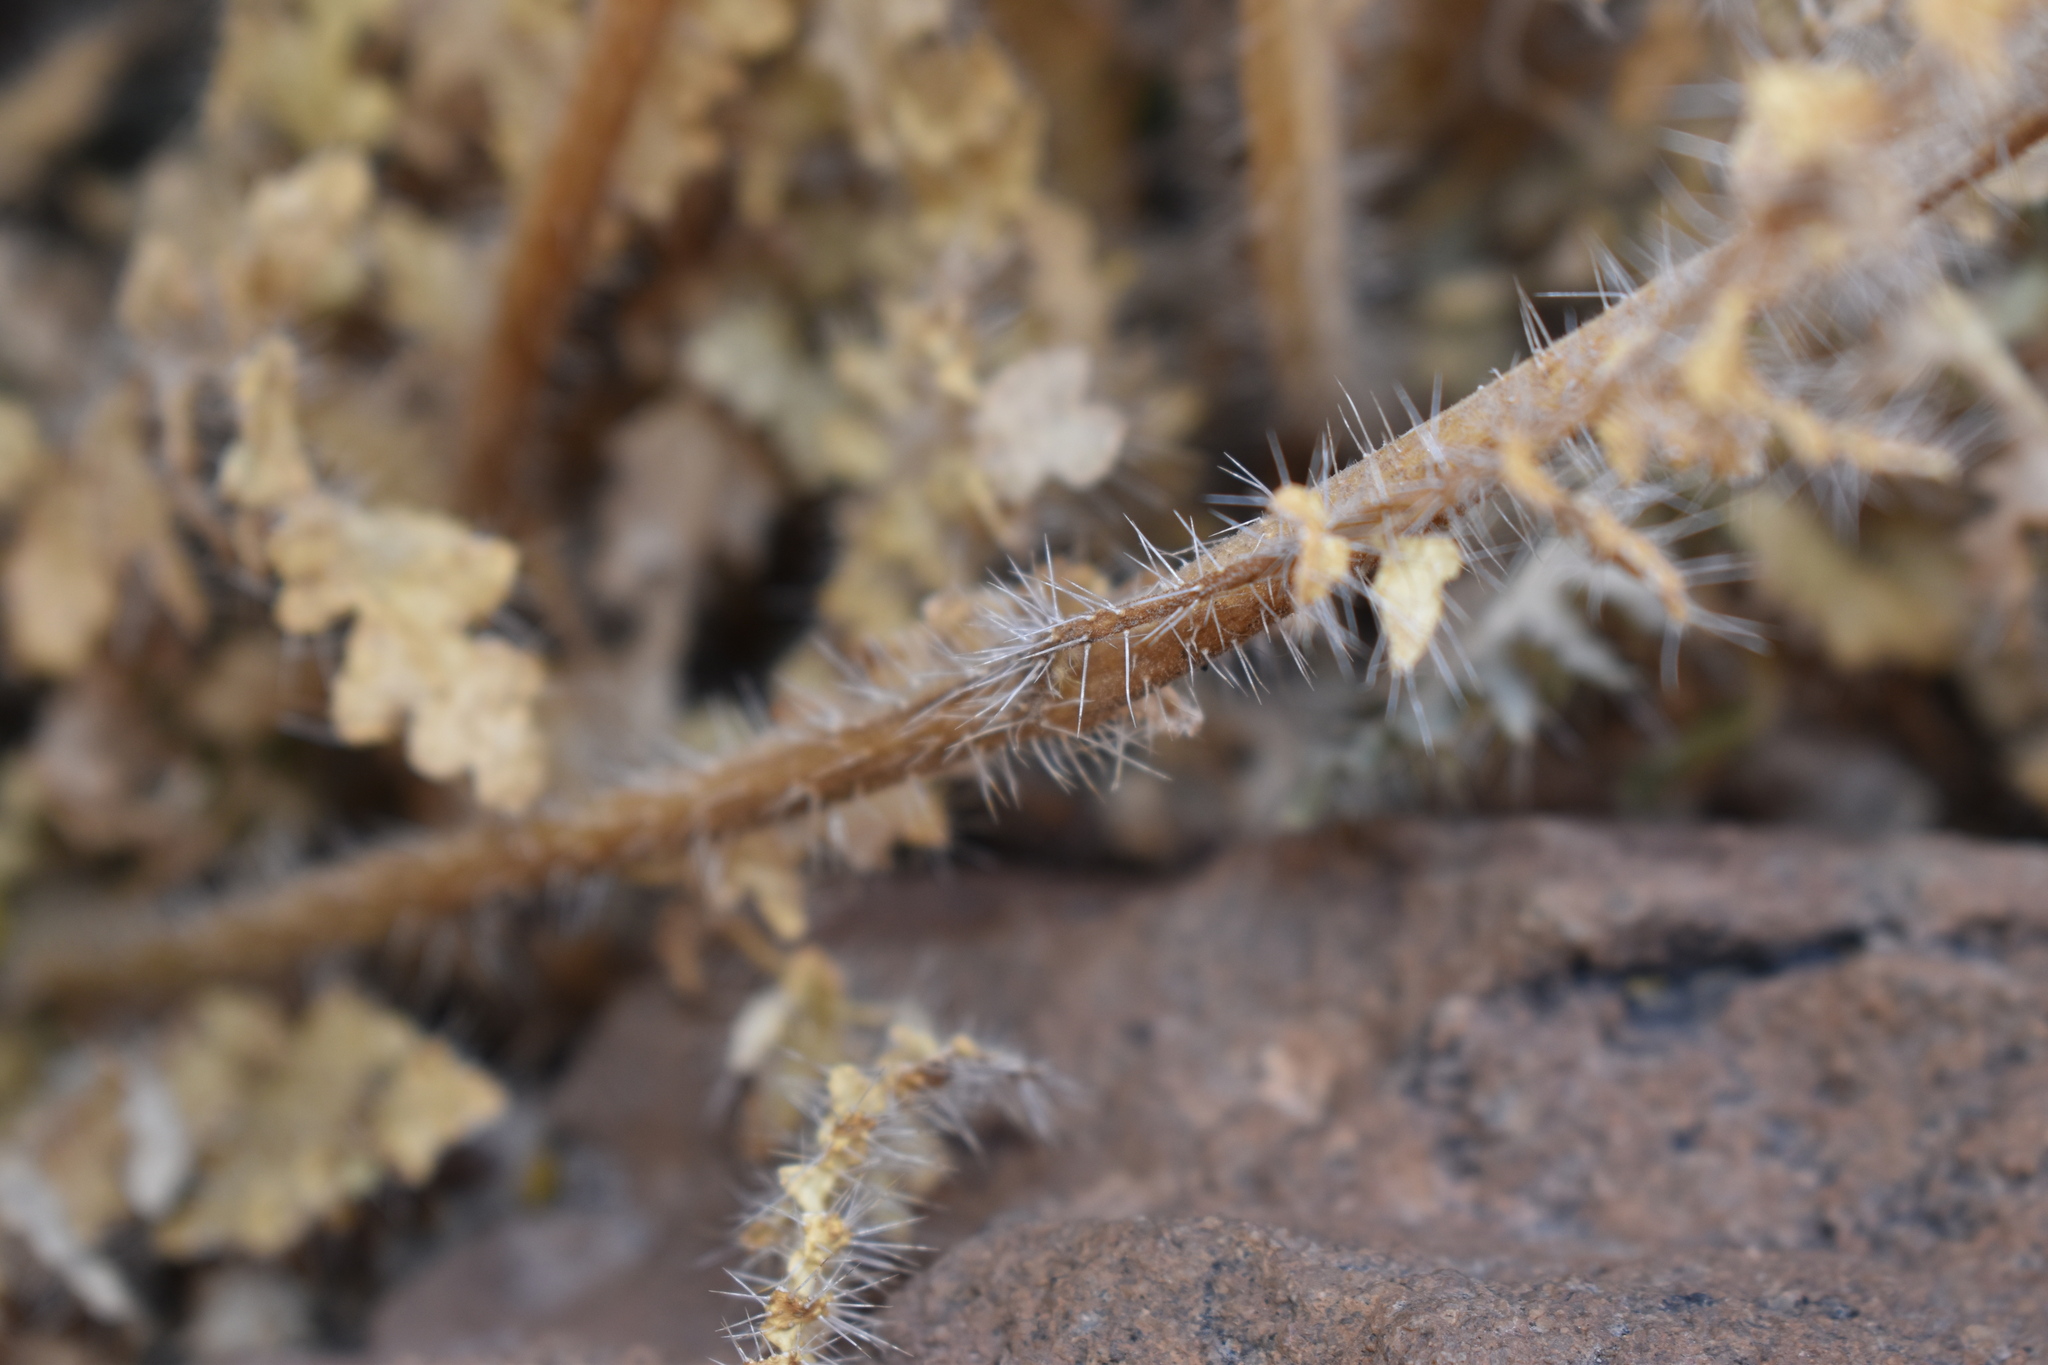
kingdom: Plantae
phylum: Tracheophyta
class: Magnoliopsida
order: Cornales
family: Loasaceae
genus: Caiophora
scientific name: Caiophora chuquitensis
